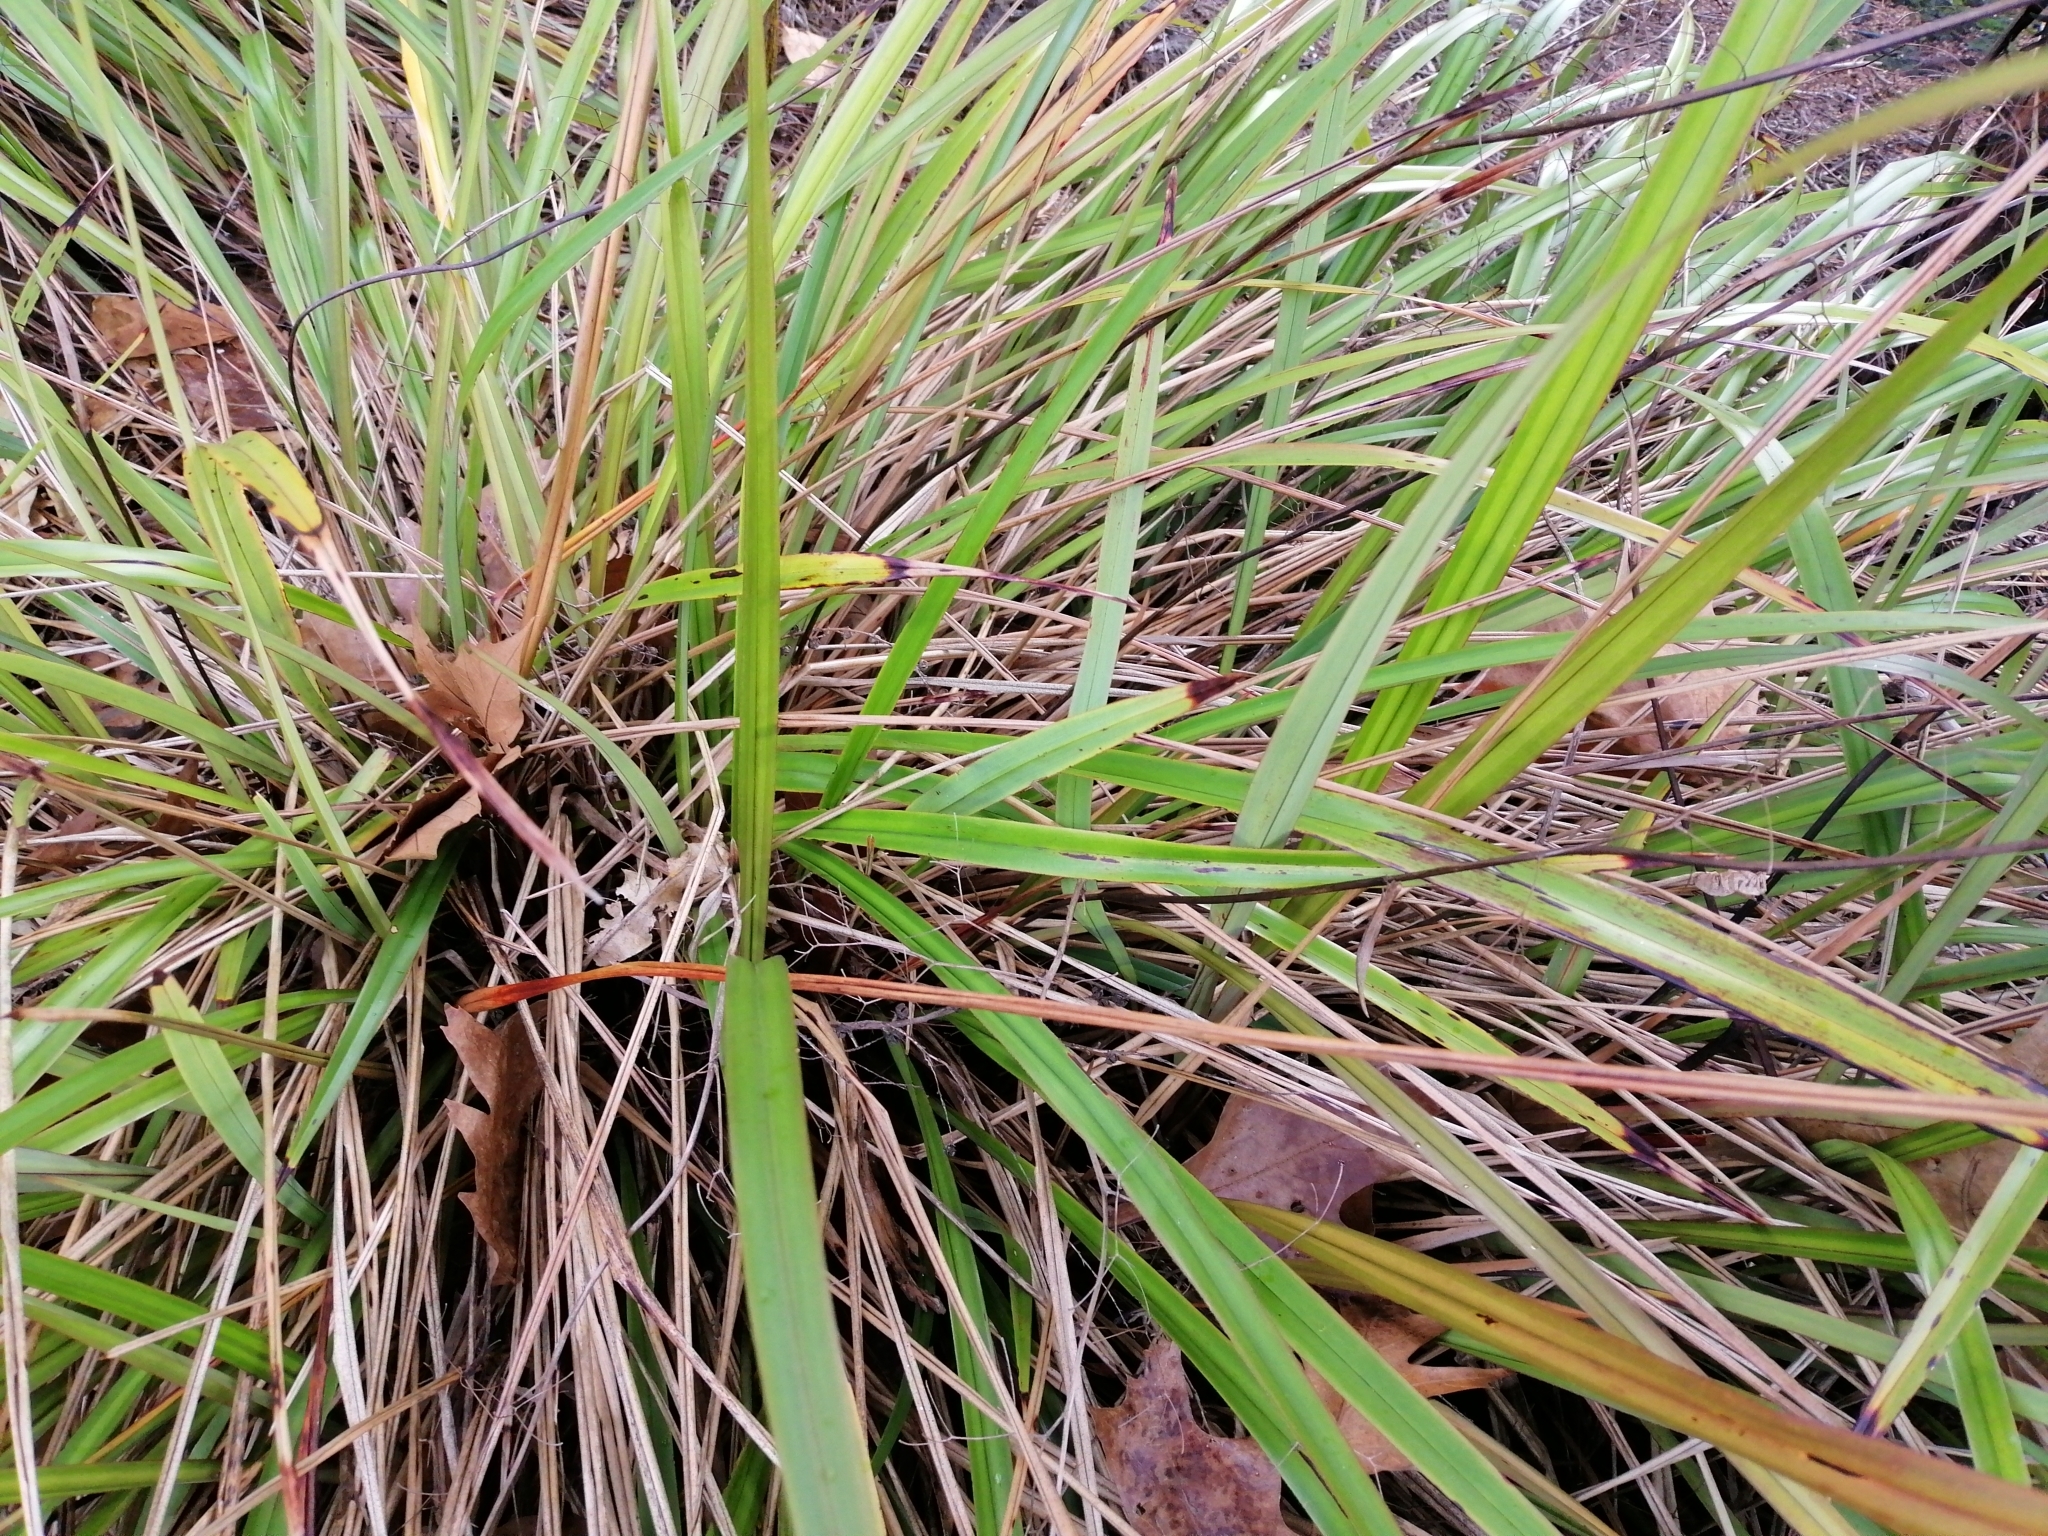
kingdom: Plantae
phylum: Tracheophyta
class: Liliopsida
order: Asparagales
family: Asphodelaceae
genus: Dianella
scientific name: Dianella haematica
